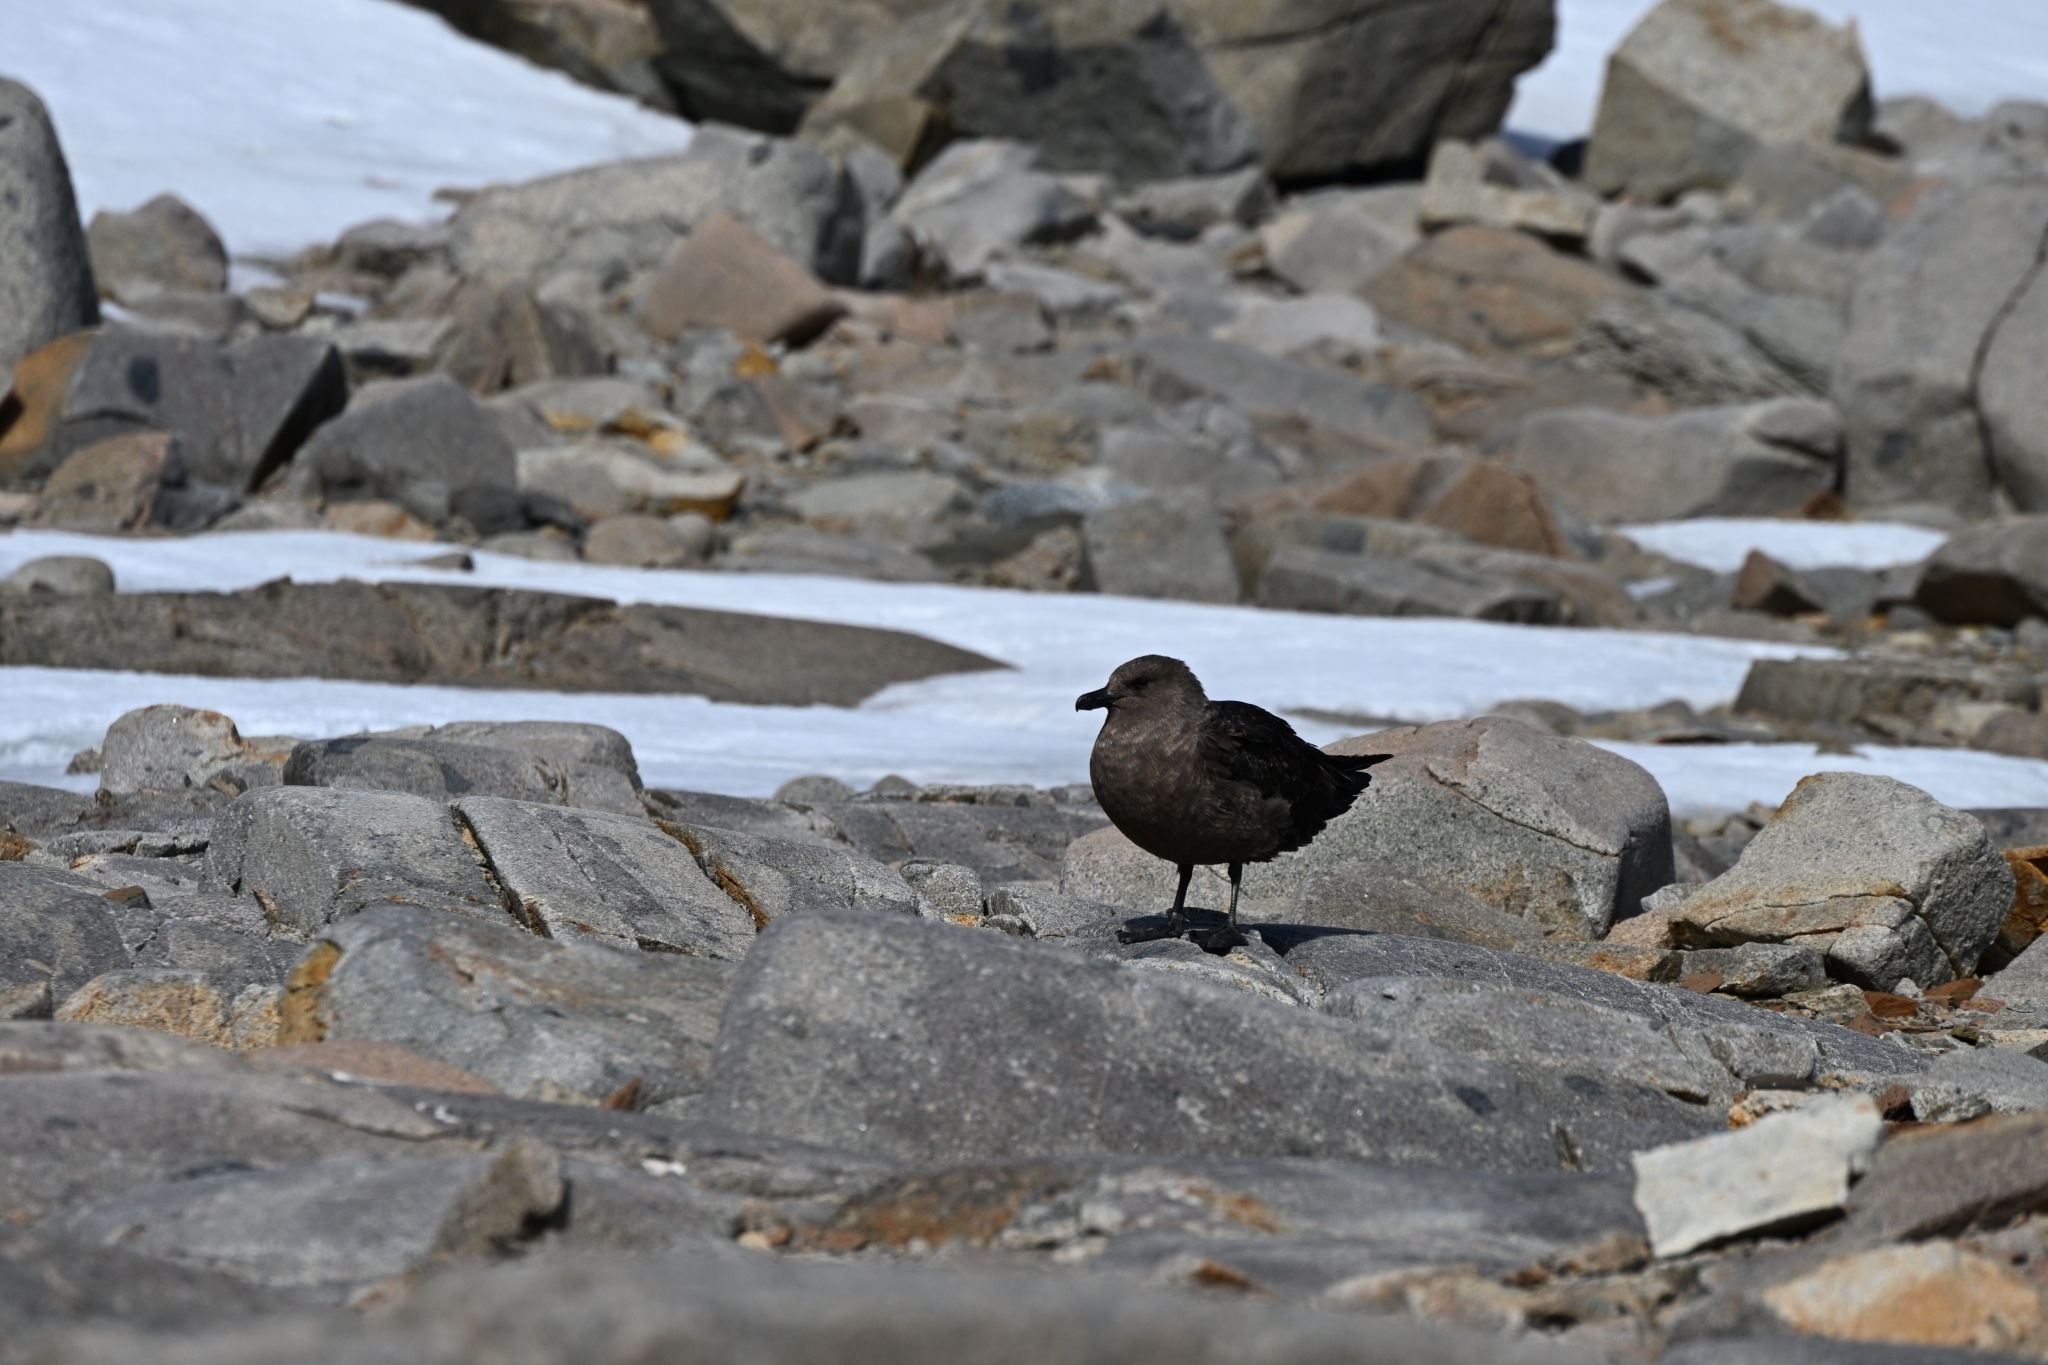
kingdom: Animalia
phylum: Chordata
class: Aves
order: Charadriiformes
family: Stercorariidae
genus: Stercorarius
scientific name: Stercorarius maccormicki
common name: South polar skua
